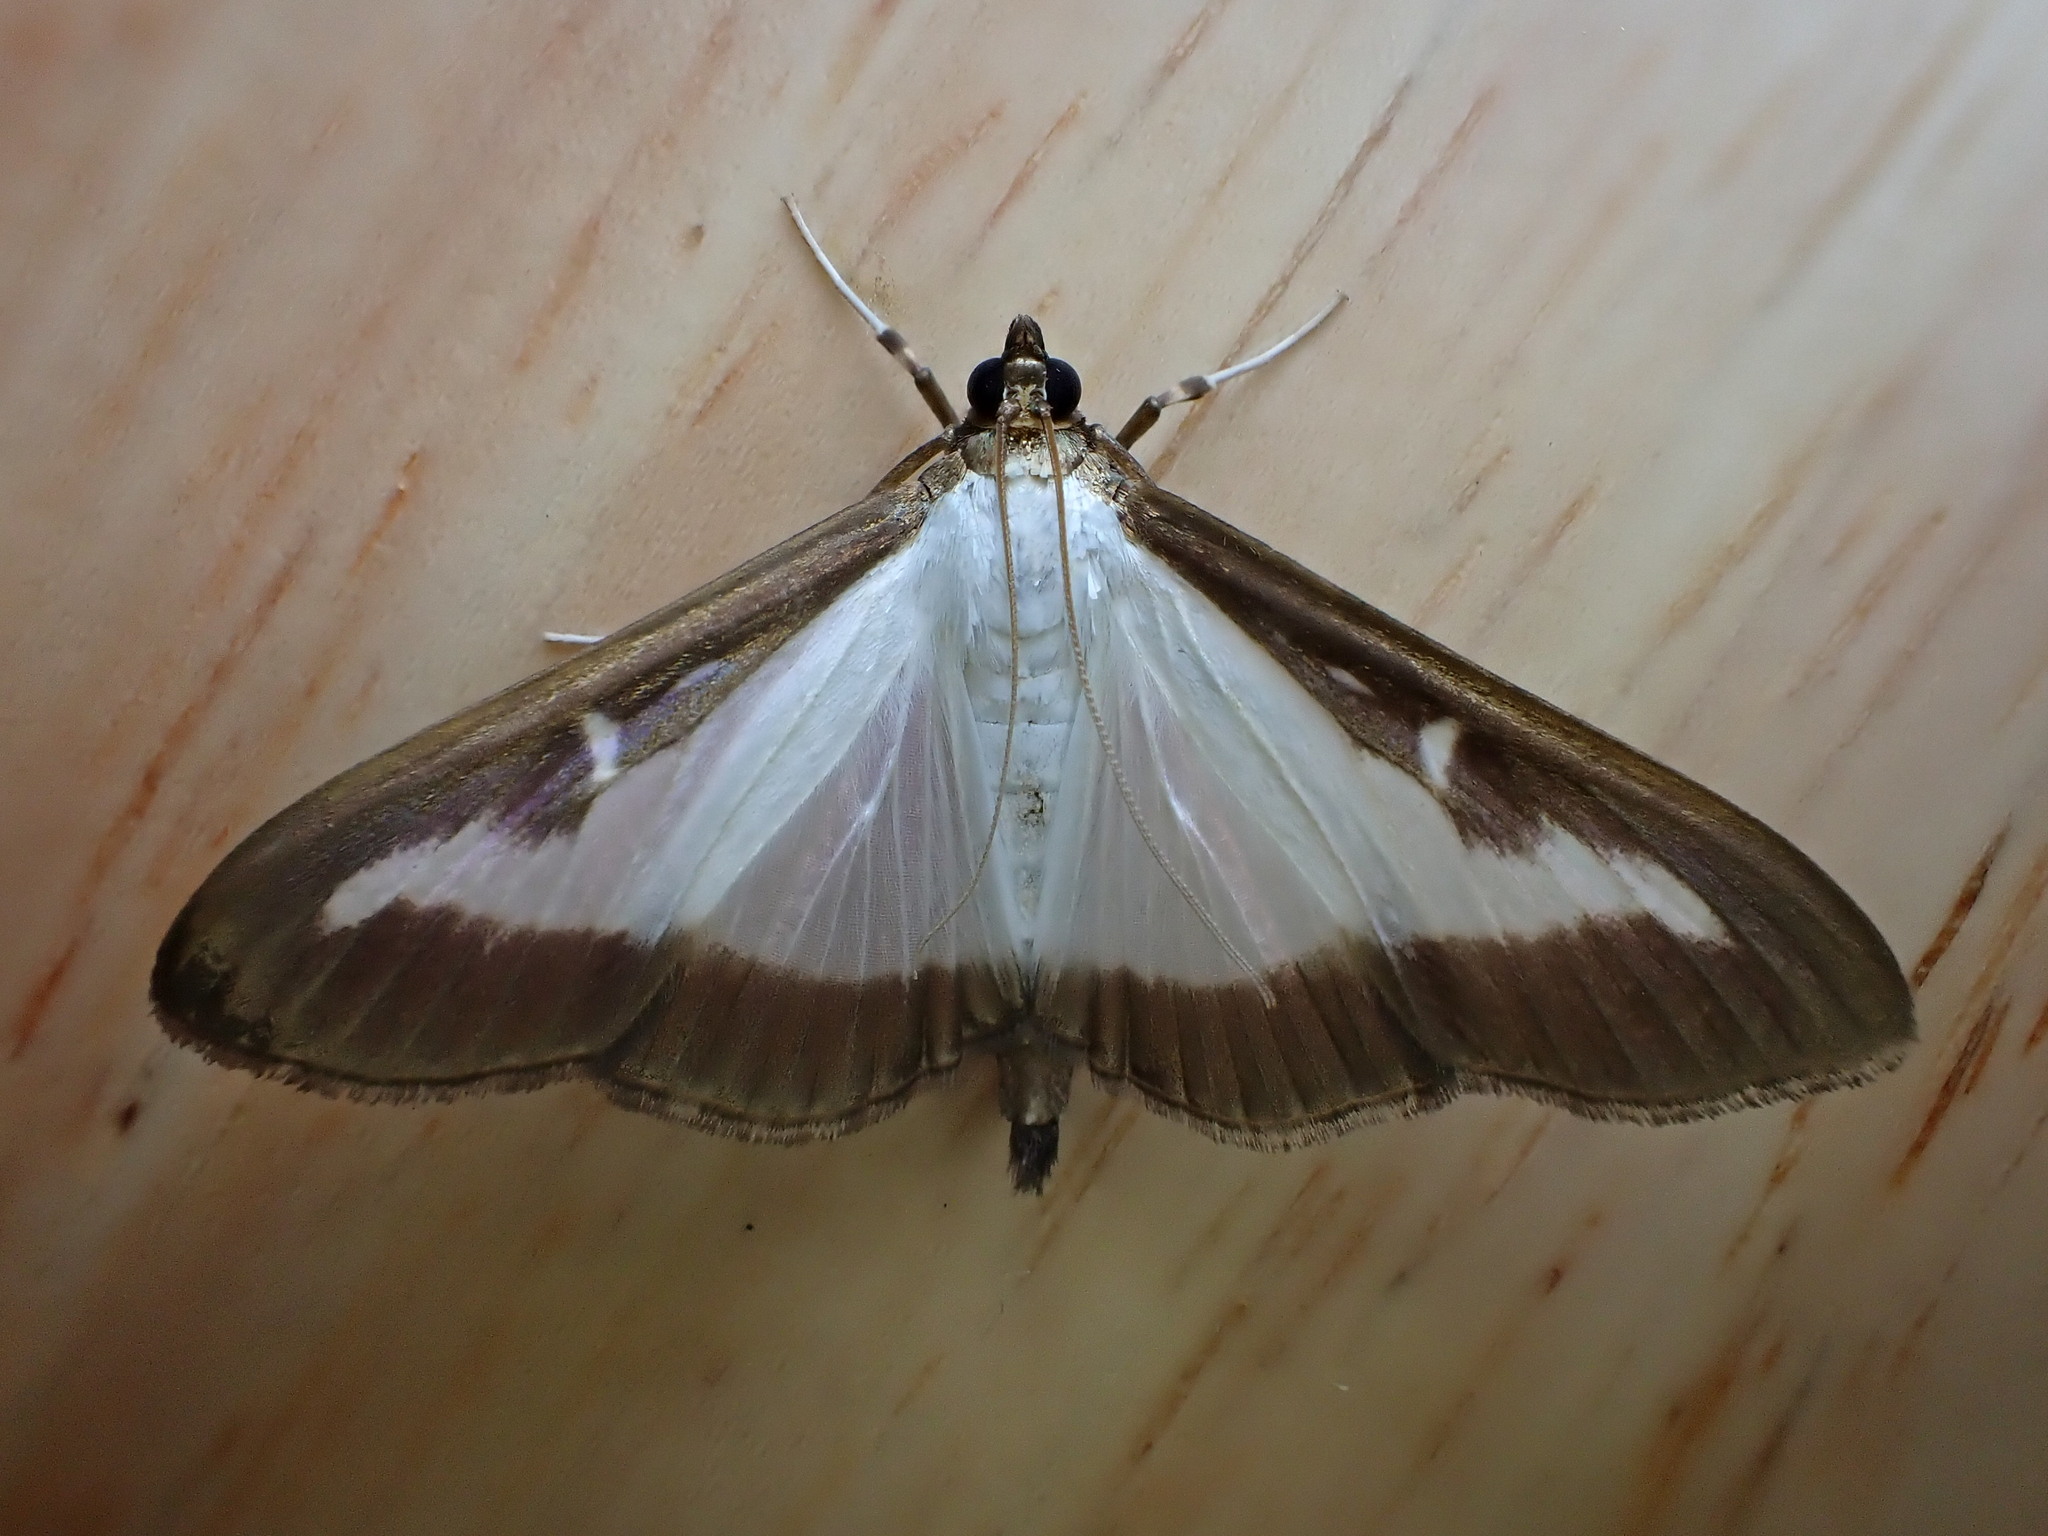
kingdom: Animalia
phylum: Arthropoda
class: Insecta
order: Lepidoptera
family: Crambidae
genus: Cydalima
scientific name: Cydalima perspectalis
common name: Box tree moth
